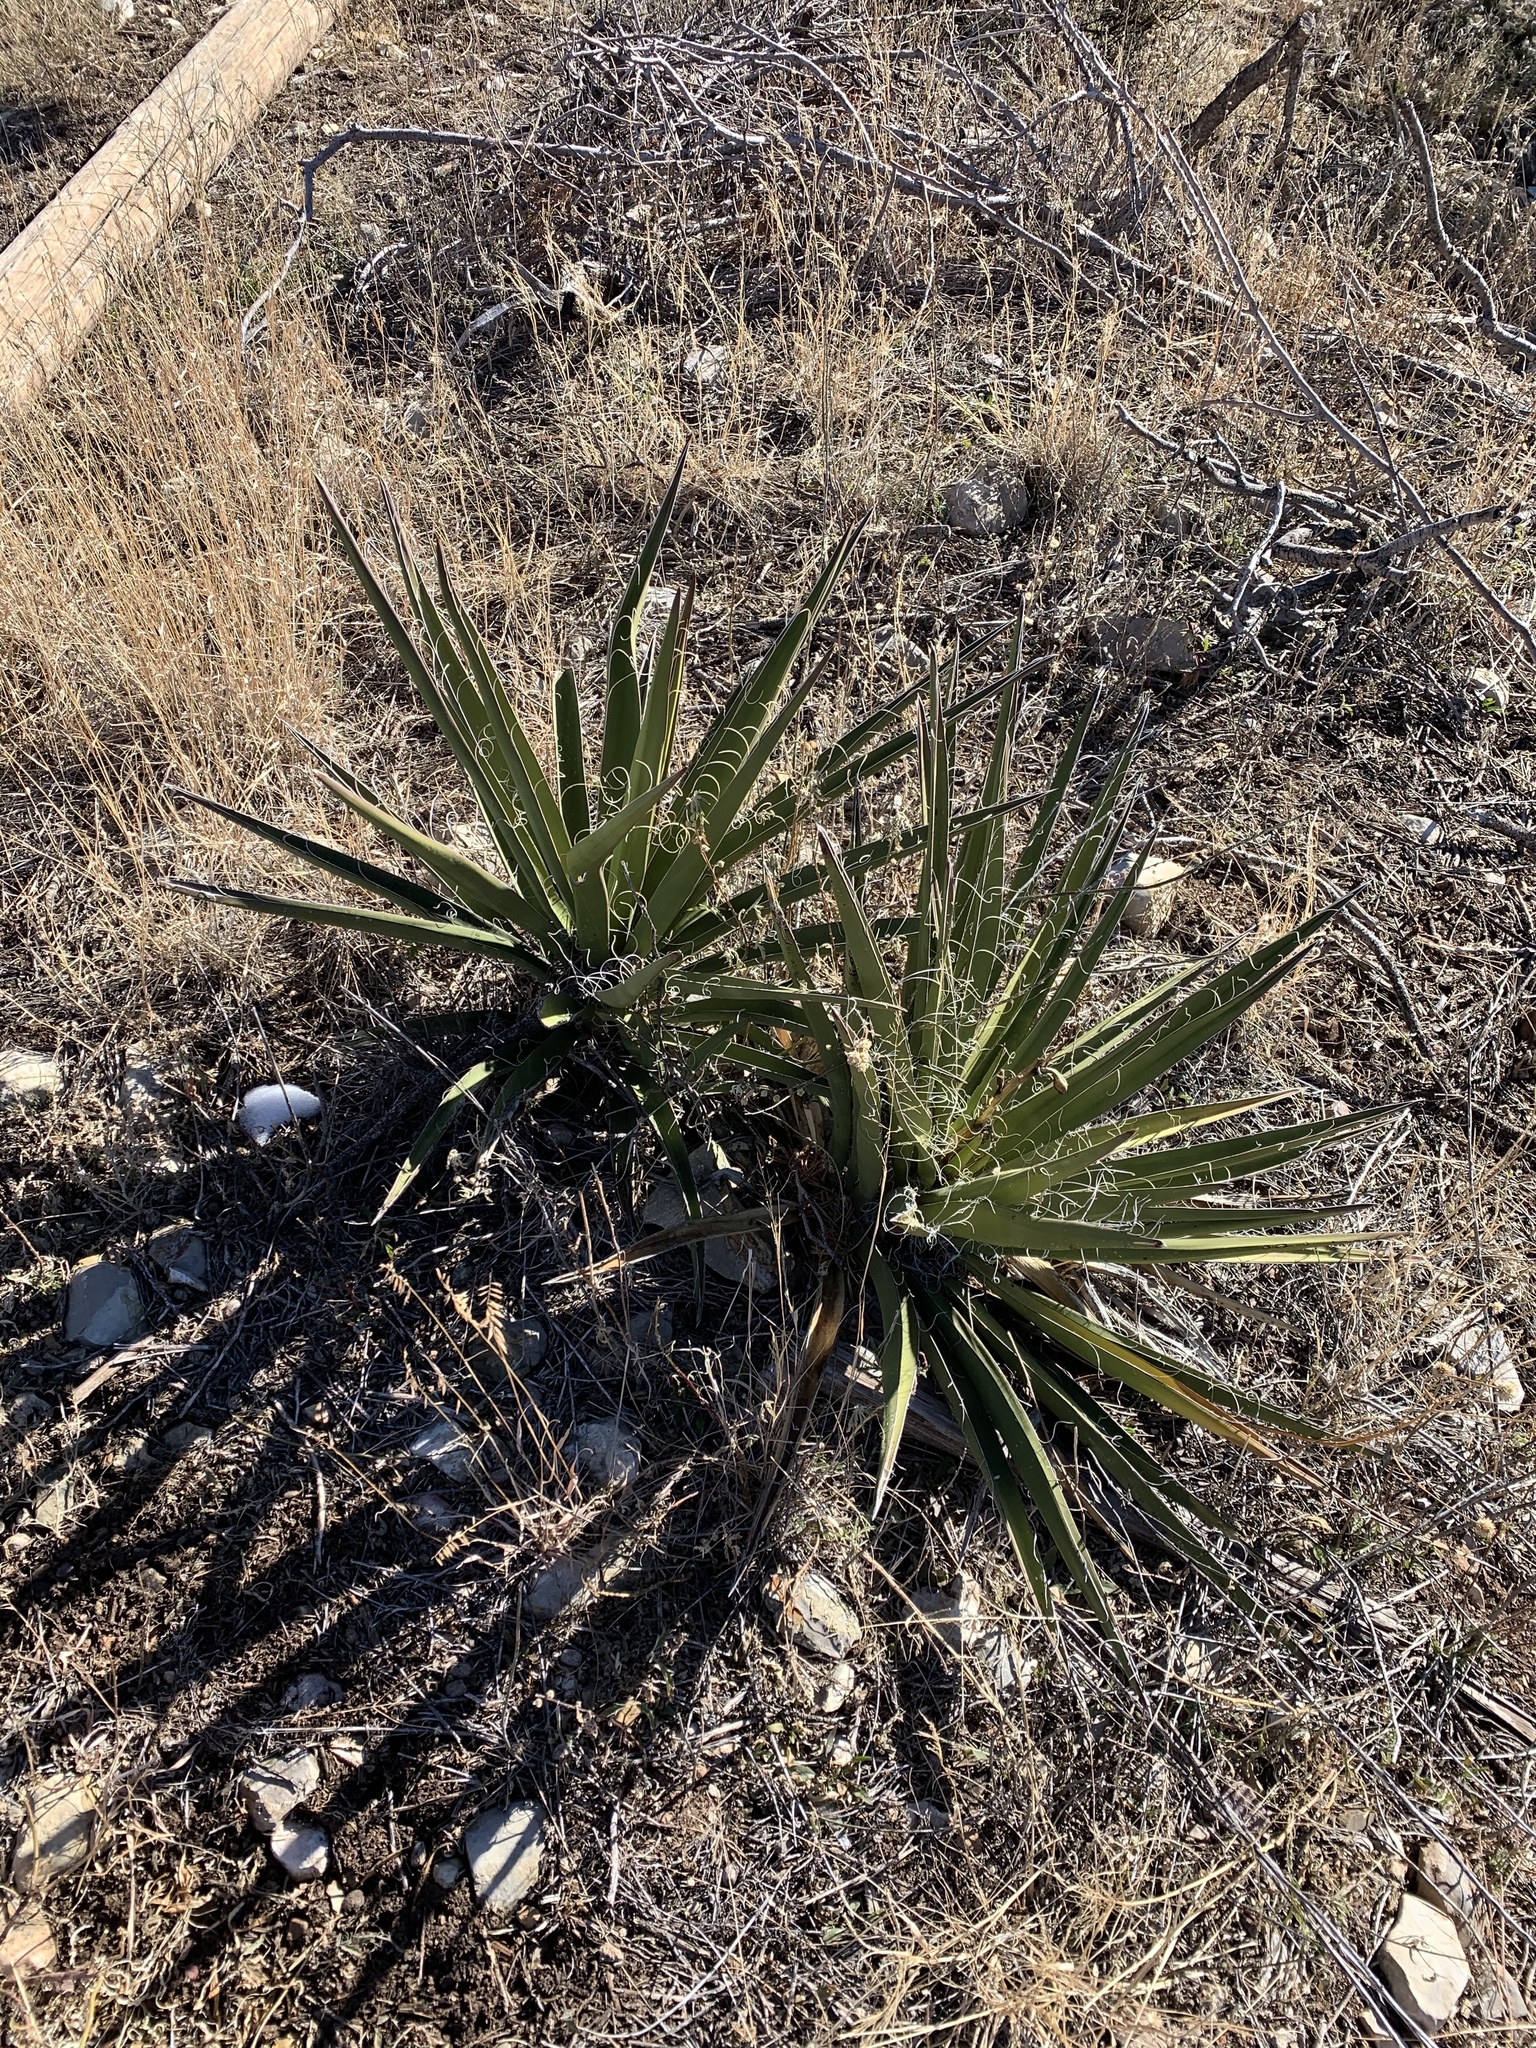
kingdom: Plantae
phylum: Tracheophyta
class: Liliopsida
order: Asparagales
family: Asparagaceae
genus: Yucca
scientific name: Yucca baccata
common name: Banana yucca
